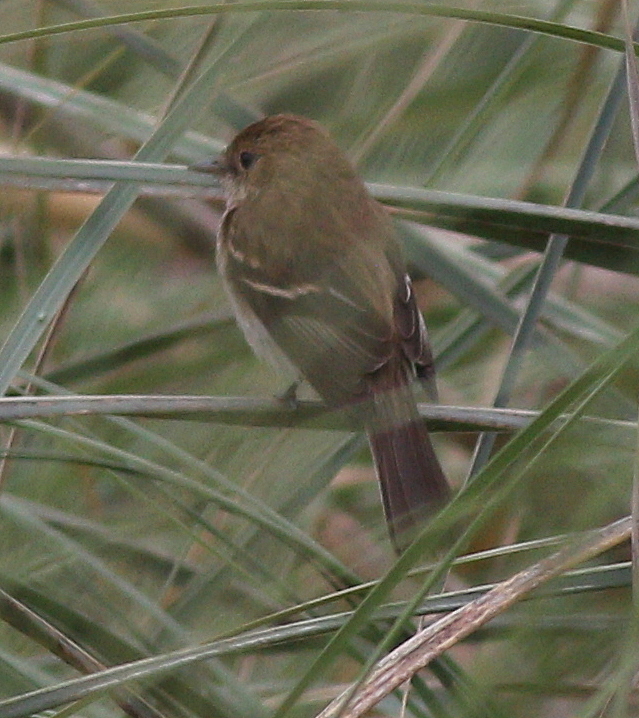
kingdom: Animalia
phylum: Chordata
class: Aves
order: Passeriformes
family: Tyrannidae
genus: Myiophobus
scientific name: Myiophobus fasciatus
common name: Bran-colored flycatcher
